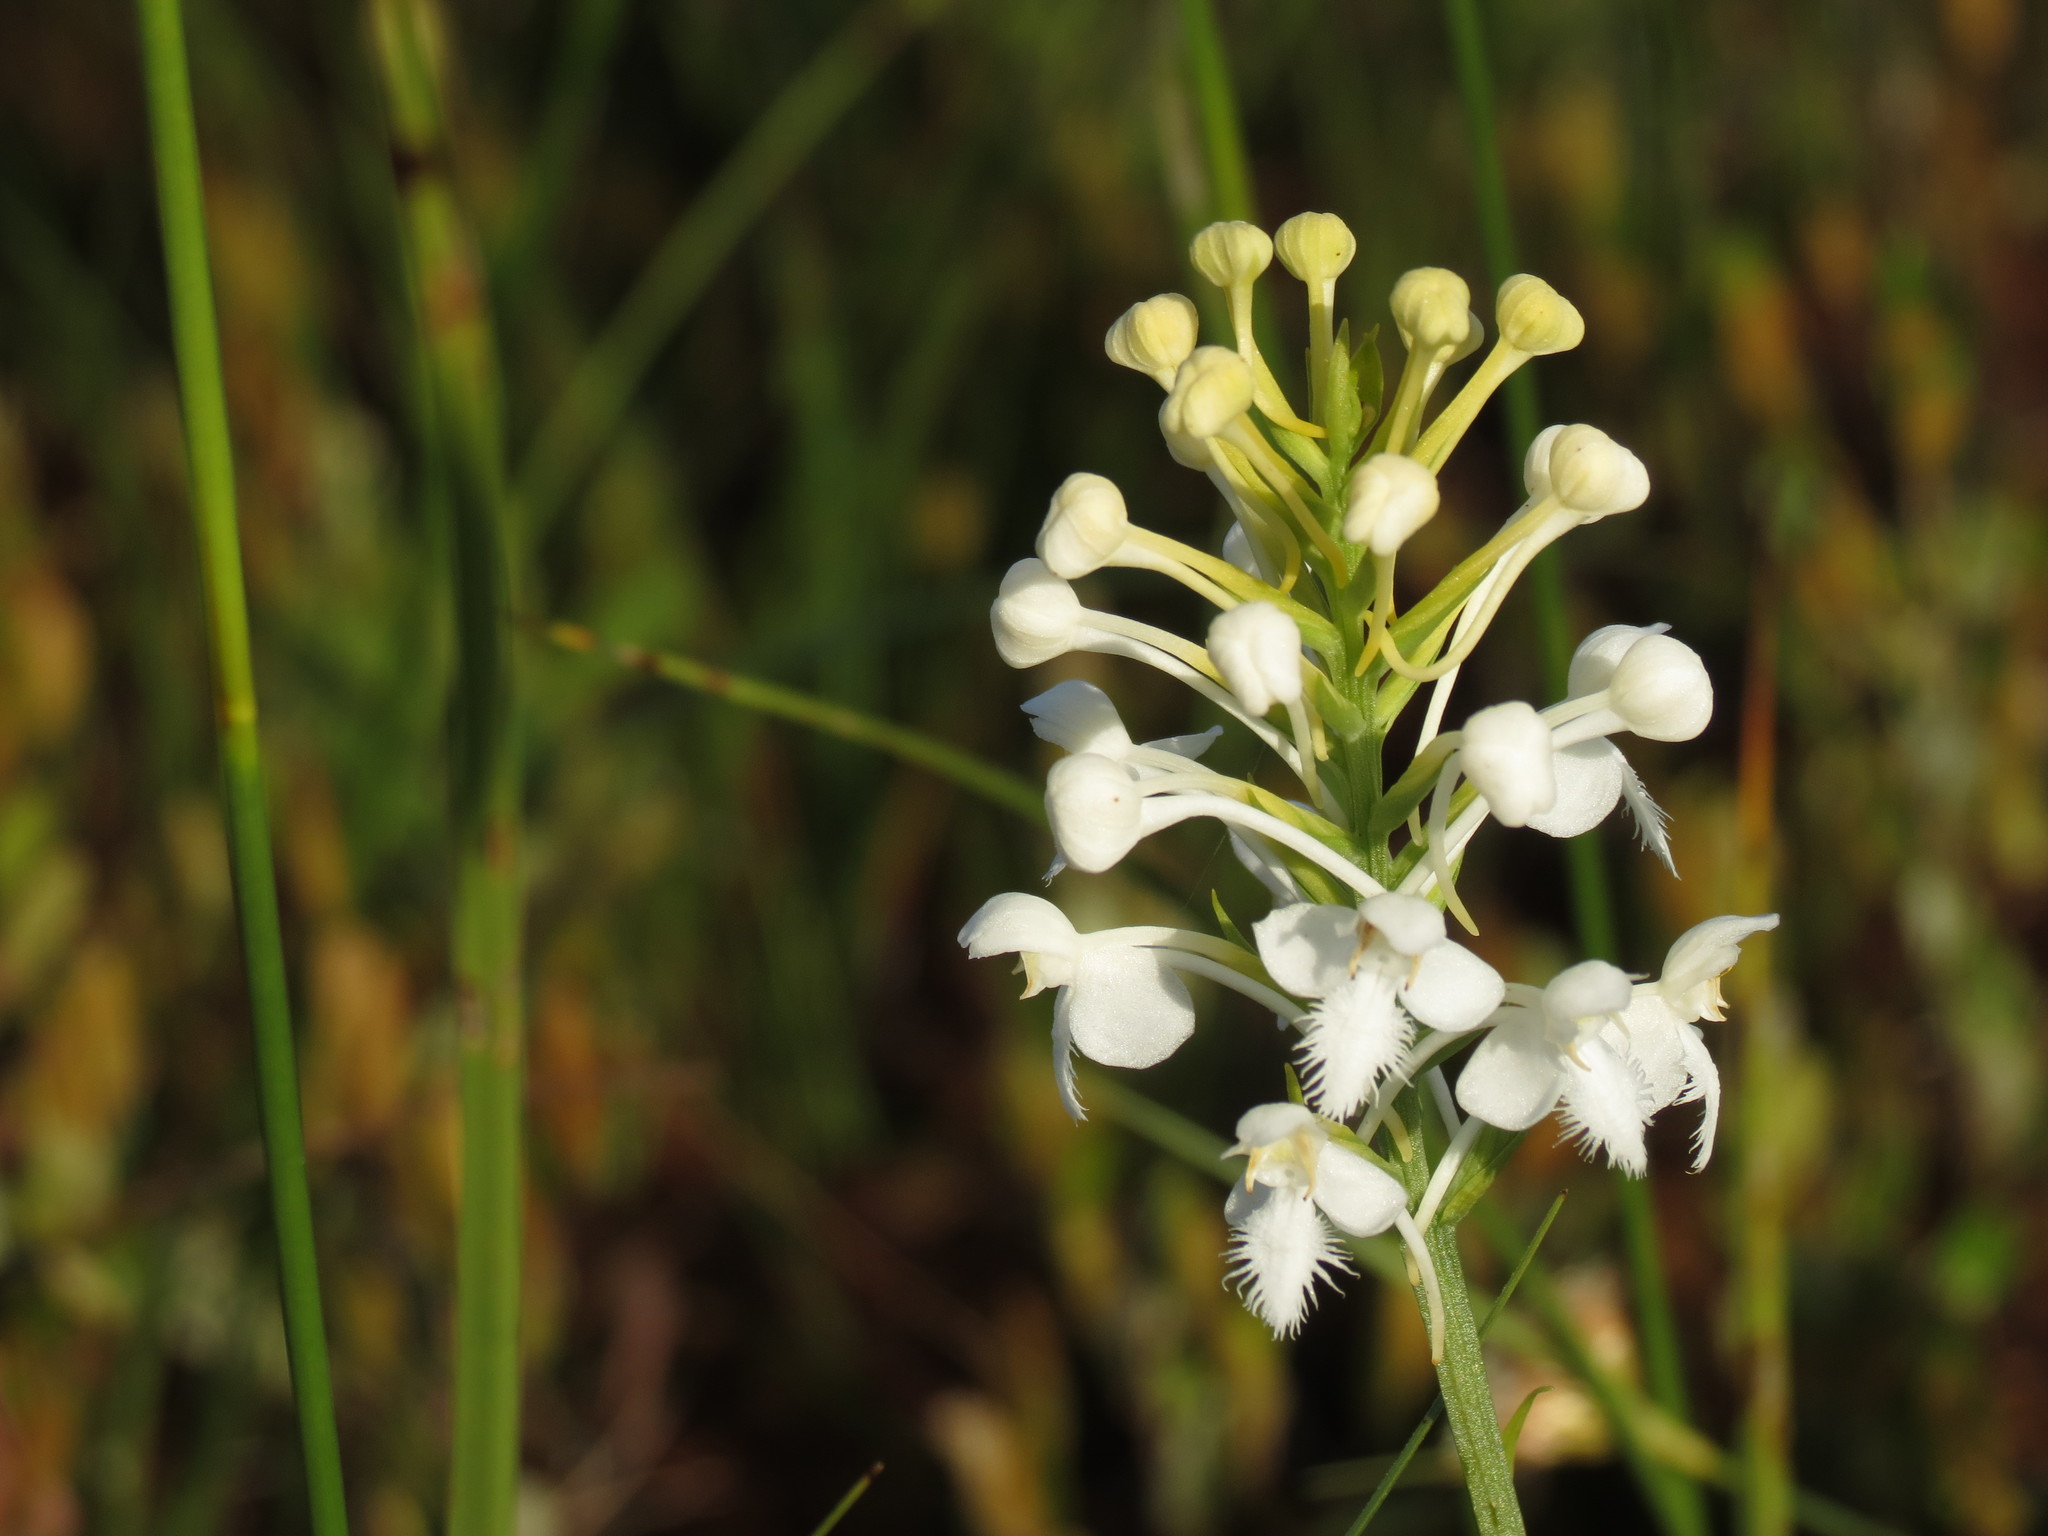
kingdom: Plantae
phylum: Tracheophyta
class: Liliopsida
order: Asparagales
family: Orchidaceae
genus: Platanthera
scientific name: Platanthera blephariglottis
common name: White fringed orchid
